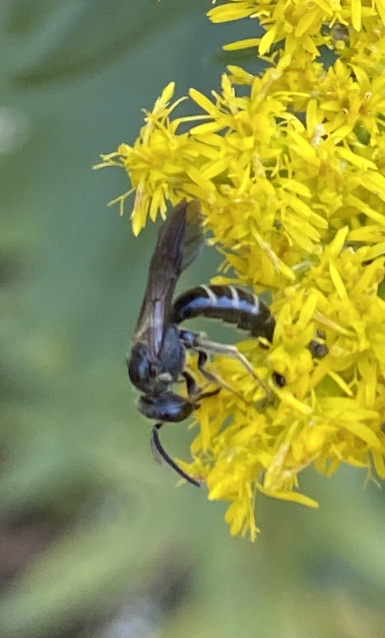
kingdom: Animalia
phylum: Arthropoda
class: Insecta
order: Hymenoptera
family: Halictidae
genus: Lasioglossum
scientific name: Lasioglossum fuscipenne
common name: Brown-winged sweat bee
